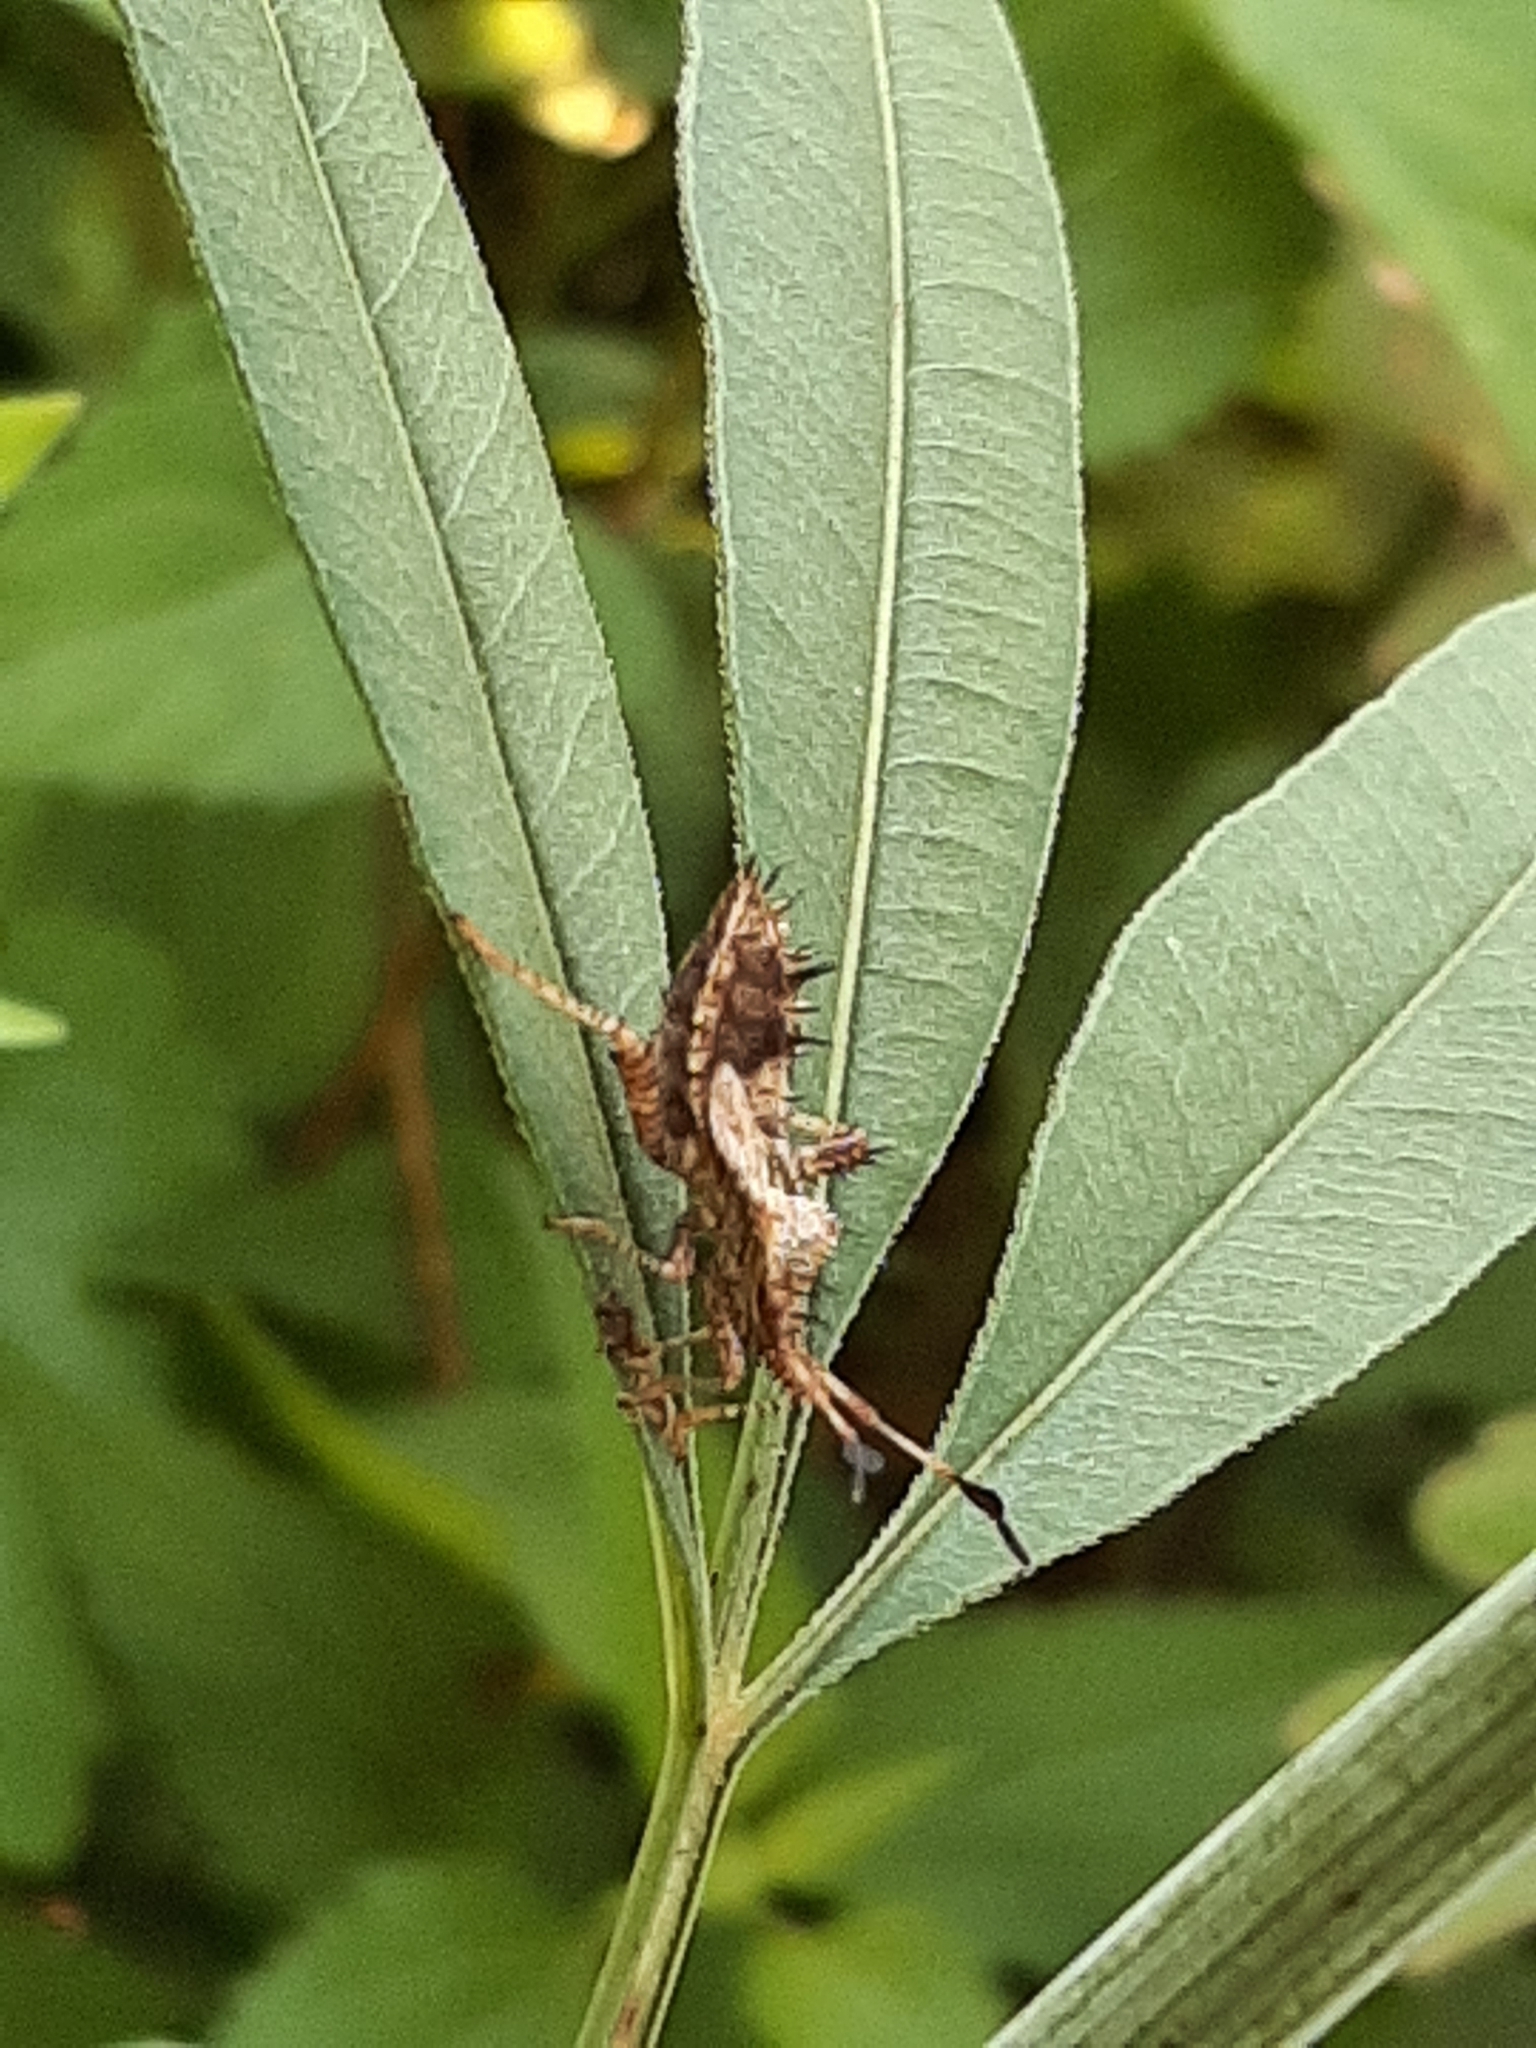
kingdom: Animalia
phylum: Arthropoda
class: Insecta
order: Hemiptera
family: Coreidae
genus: Euthochtha
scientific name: Euthochtha galeator
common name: Helmeted squash bug
